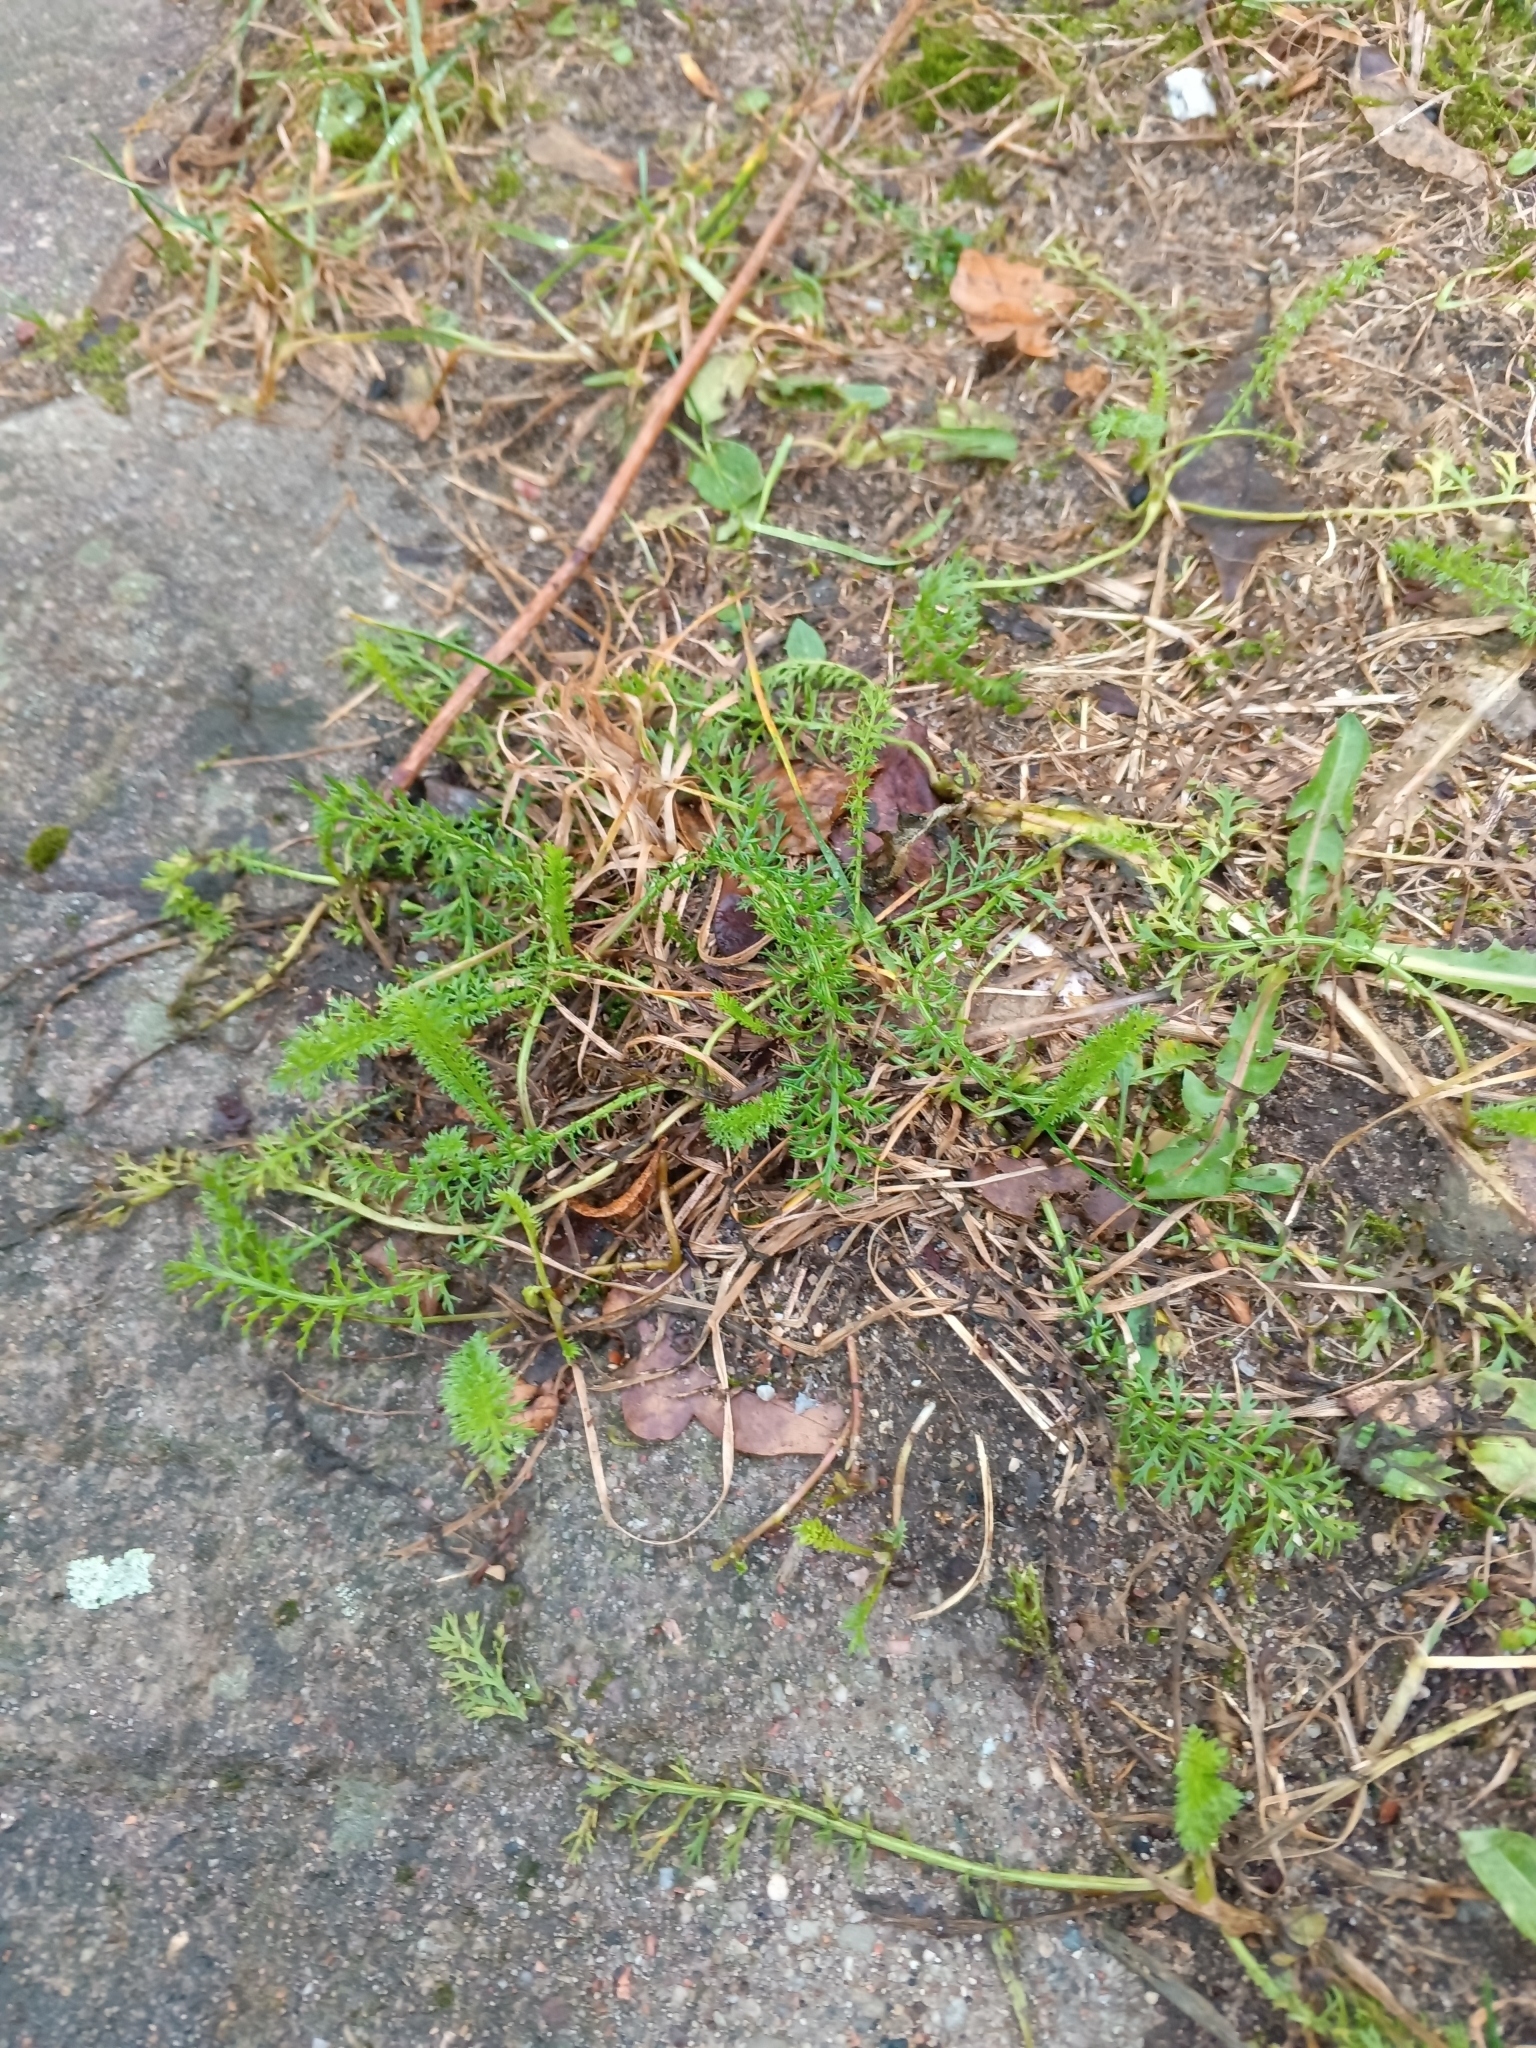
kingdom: Plantae
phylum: Tracheophyta
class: Magnoliopsida
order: Asterales
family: Asteraceae
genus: Achillea
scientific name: Achillea millefolium
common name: Yarrow
